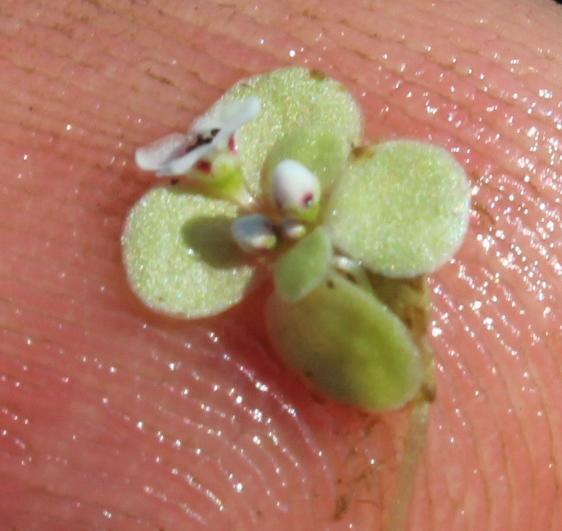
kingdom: Plantae
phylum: Tracheophyta
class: Magnoliopsida
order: Saxifragales
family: Crassulaceae
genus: Crassula
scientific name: Crassula natans
